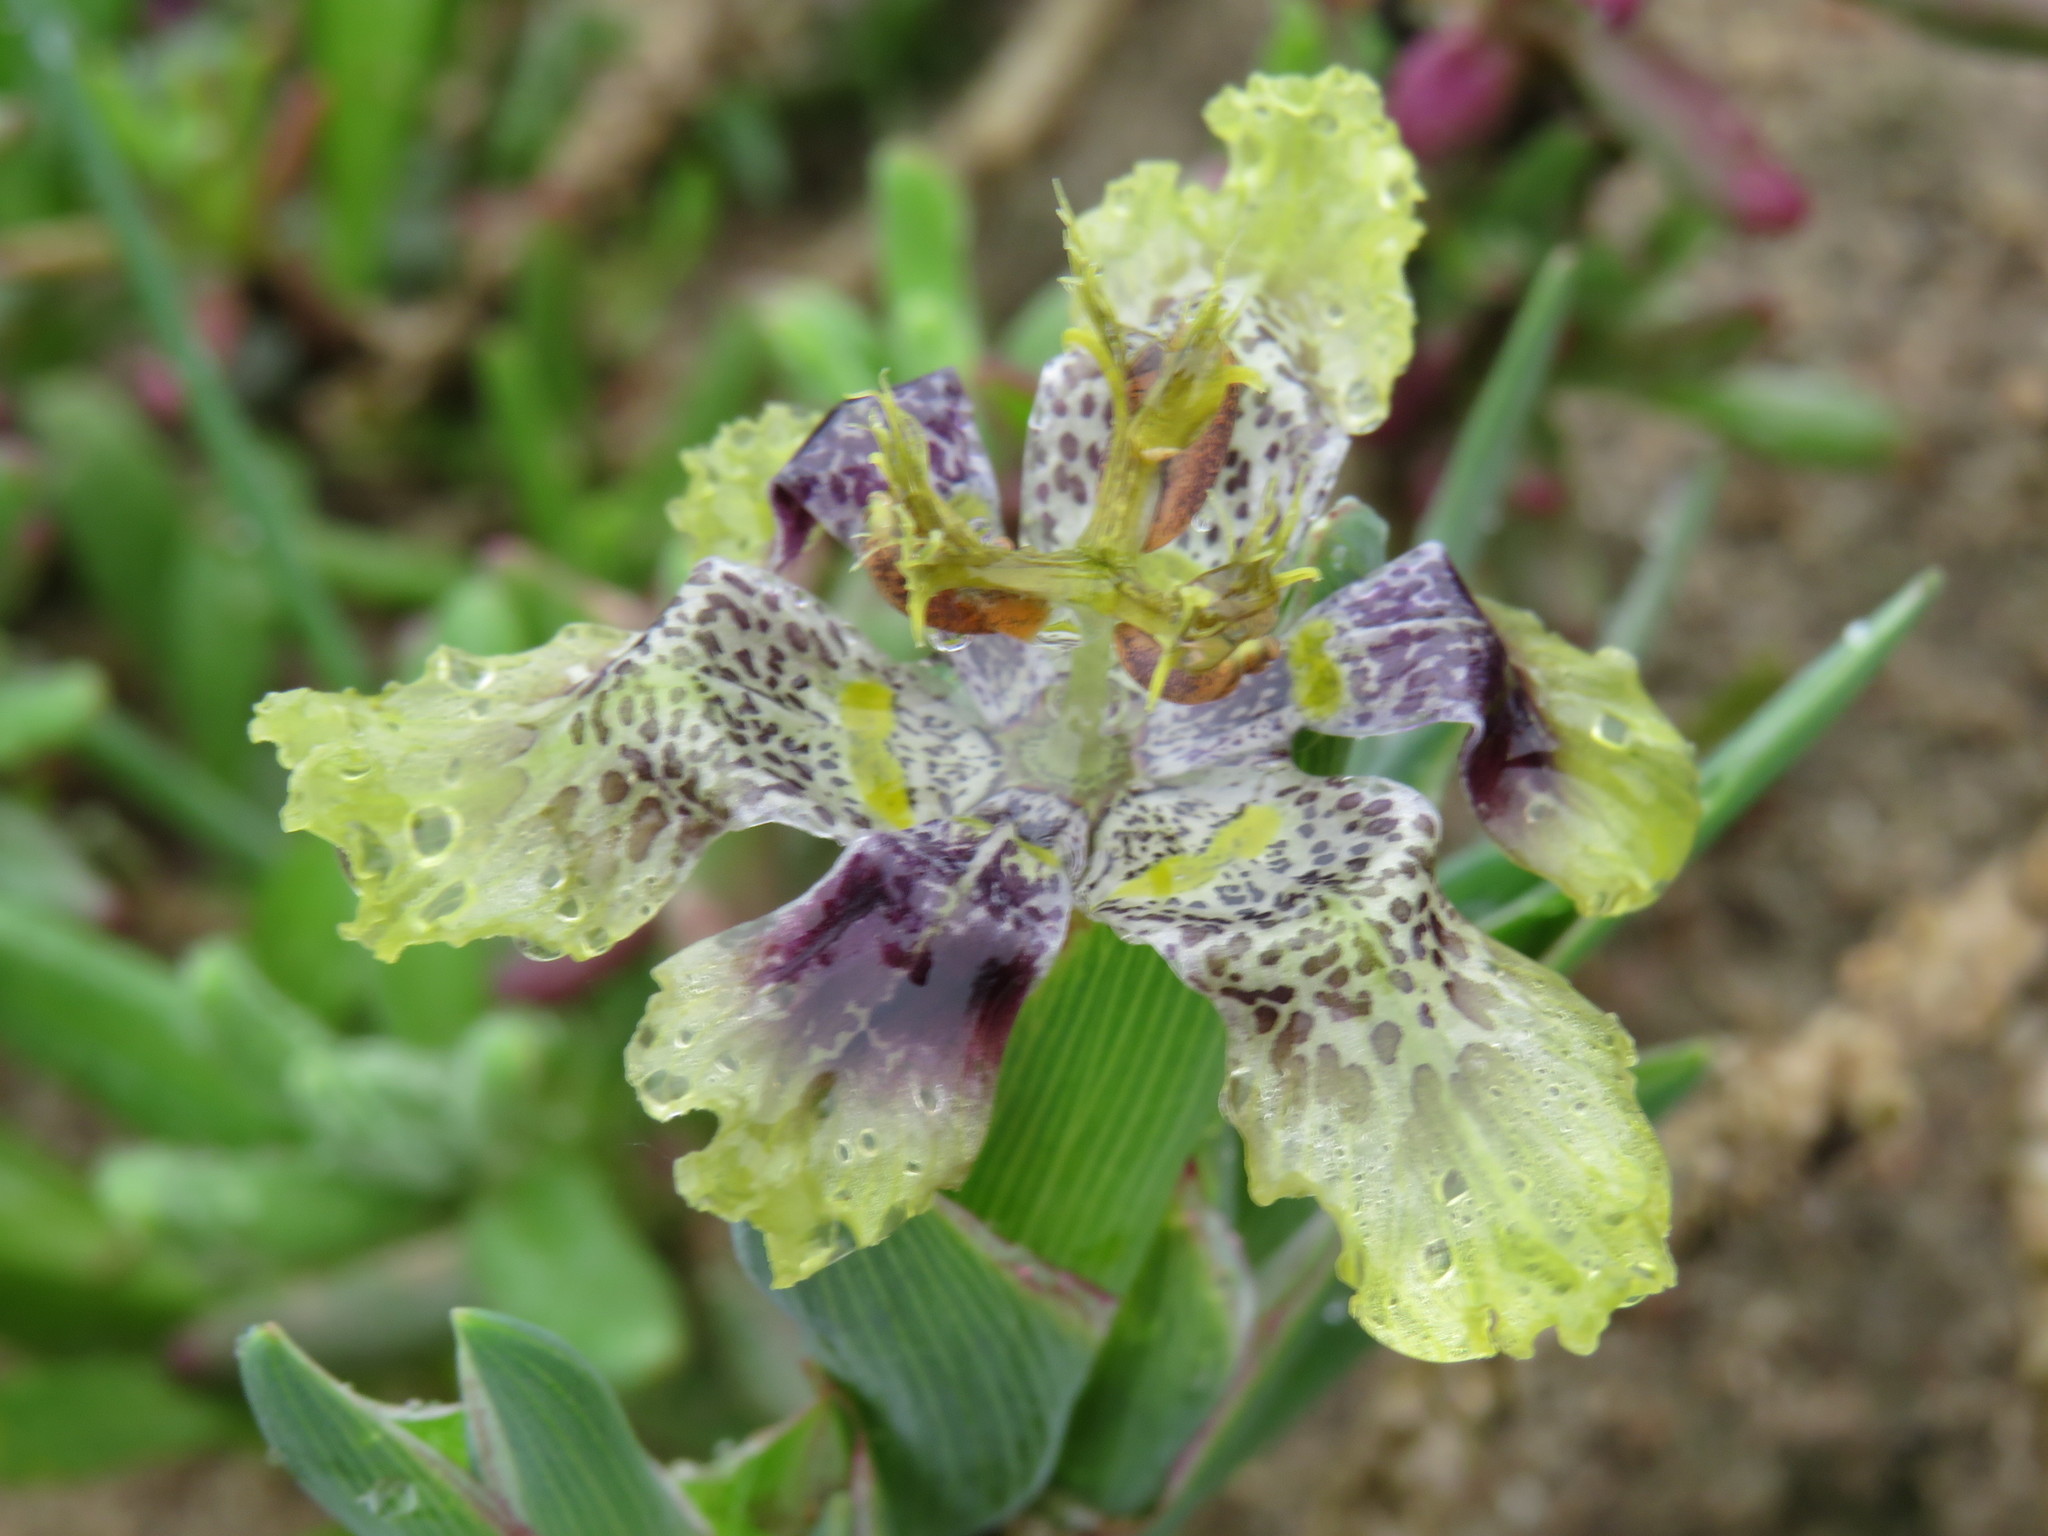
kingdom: Plantae
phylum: Tracheophyta
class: Liliopsida
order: Asparagales
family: Iridaceae
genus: Ferraria
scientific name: Ferraria densepunctulata
